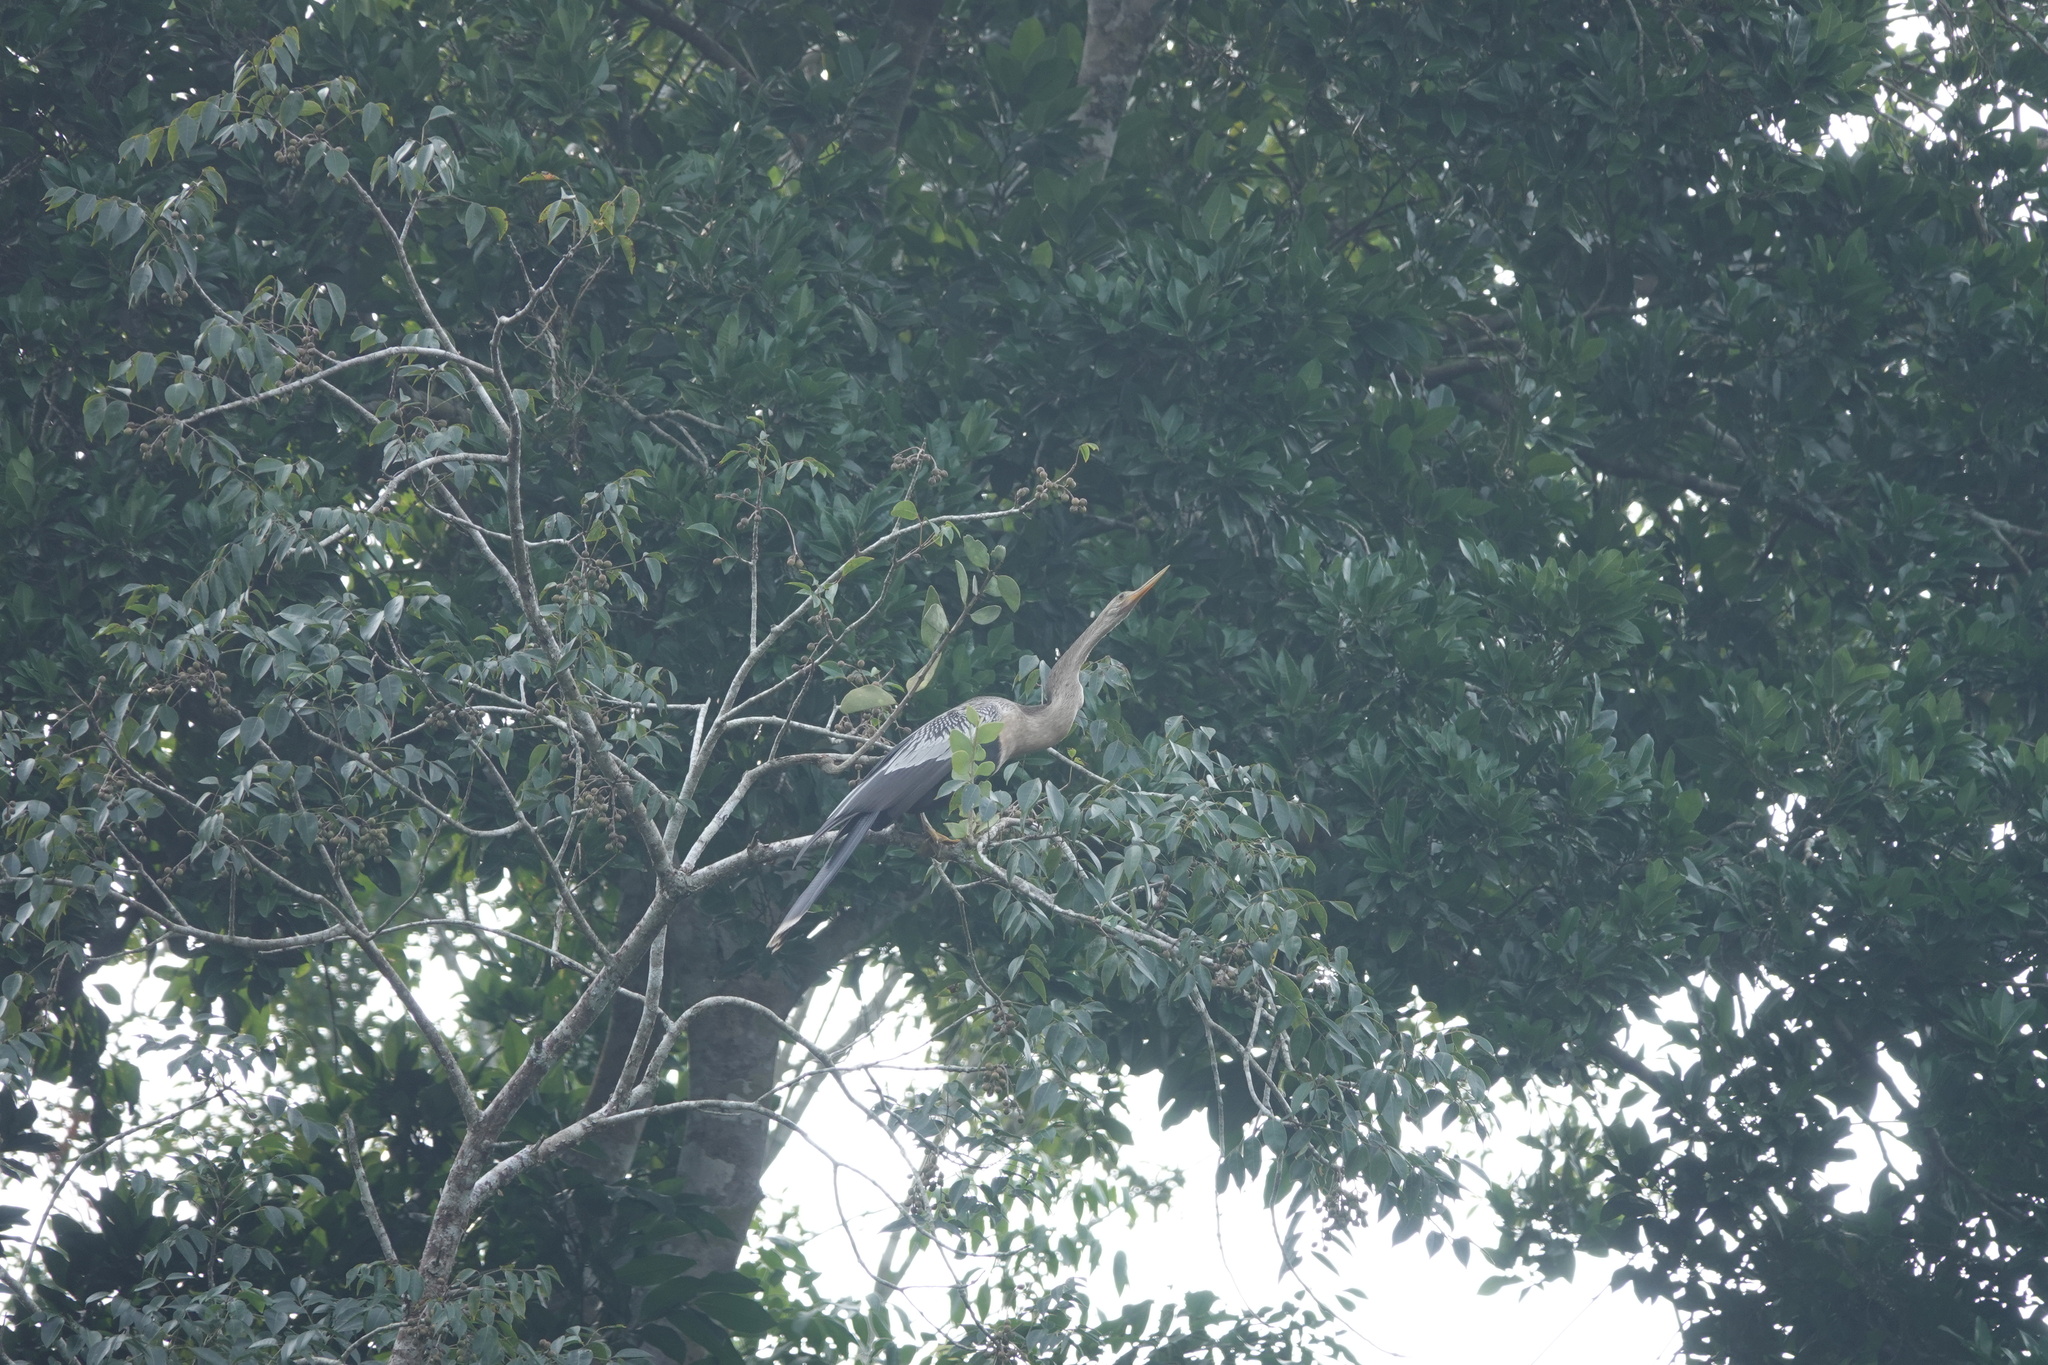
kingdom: Animalia
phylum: Chordata
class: Aves
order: Suliformes
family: Anhingidae
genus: Anhinga
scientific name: Anhinga anhinga
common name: Anhinga
